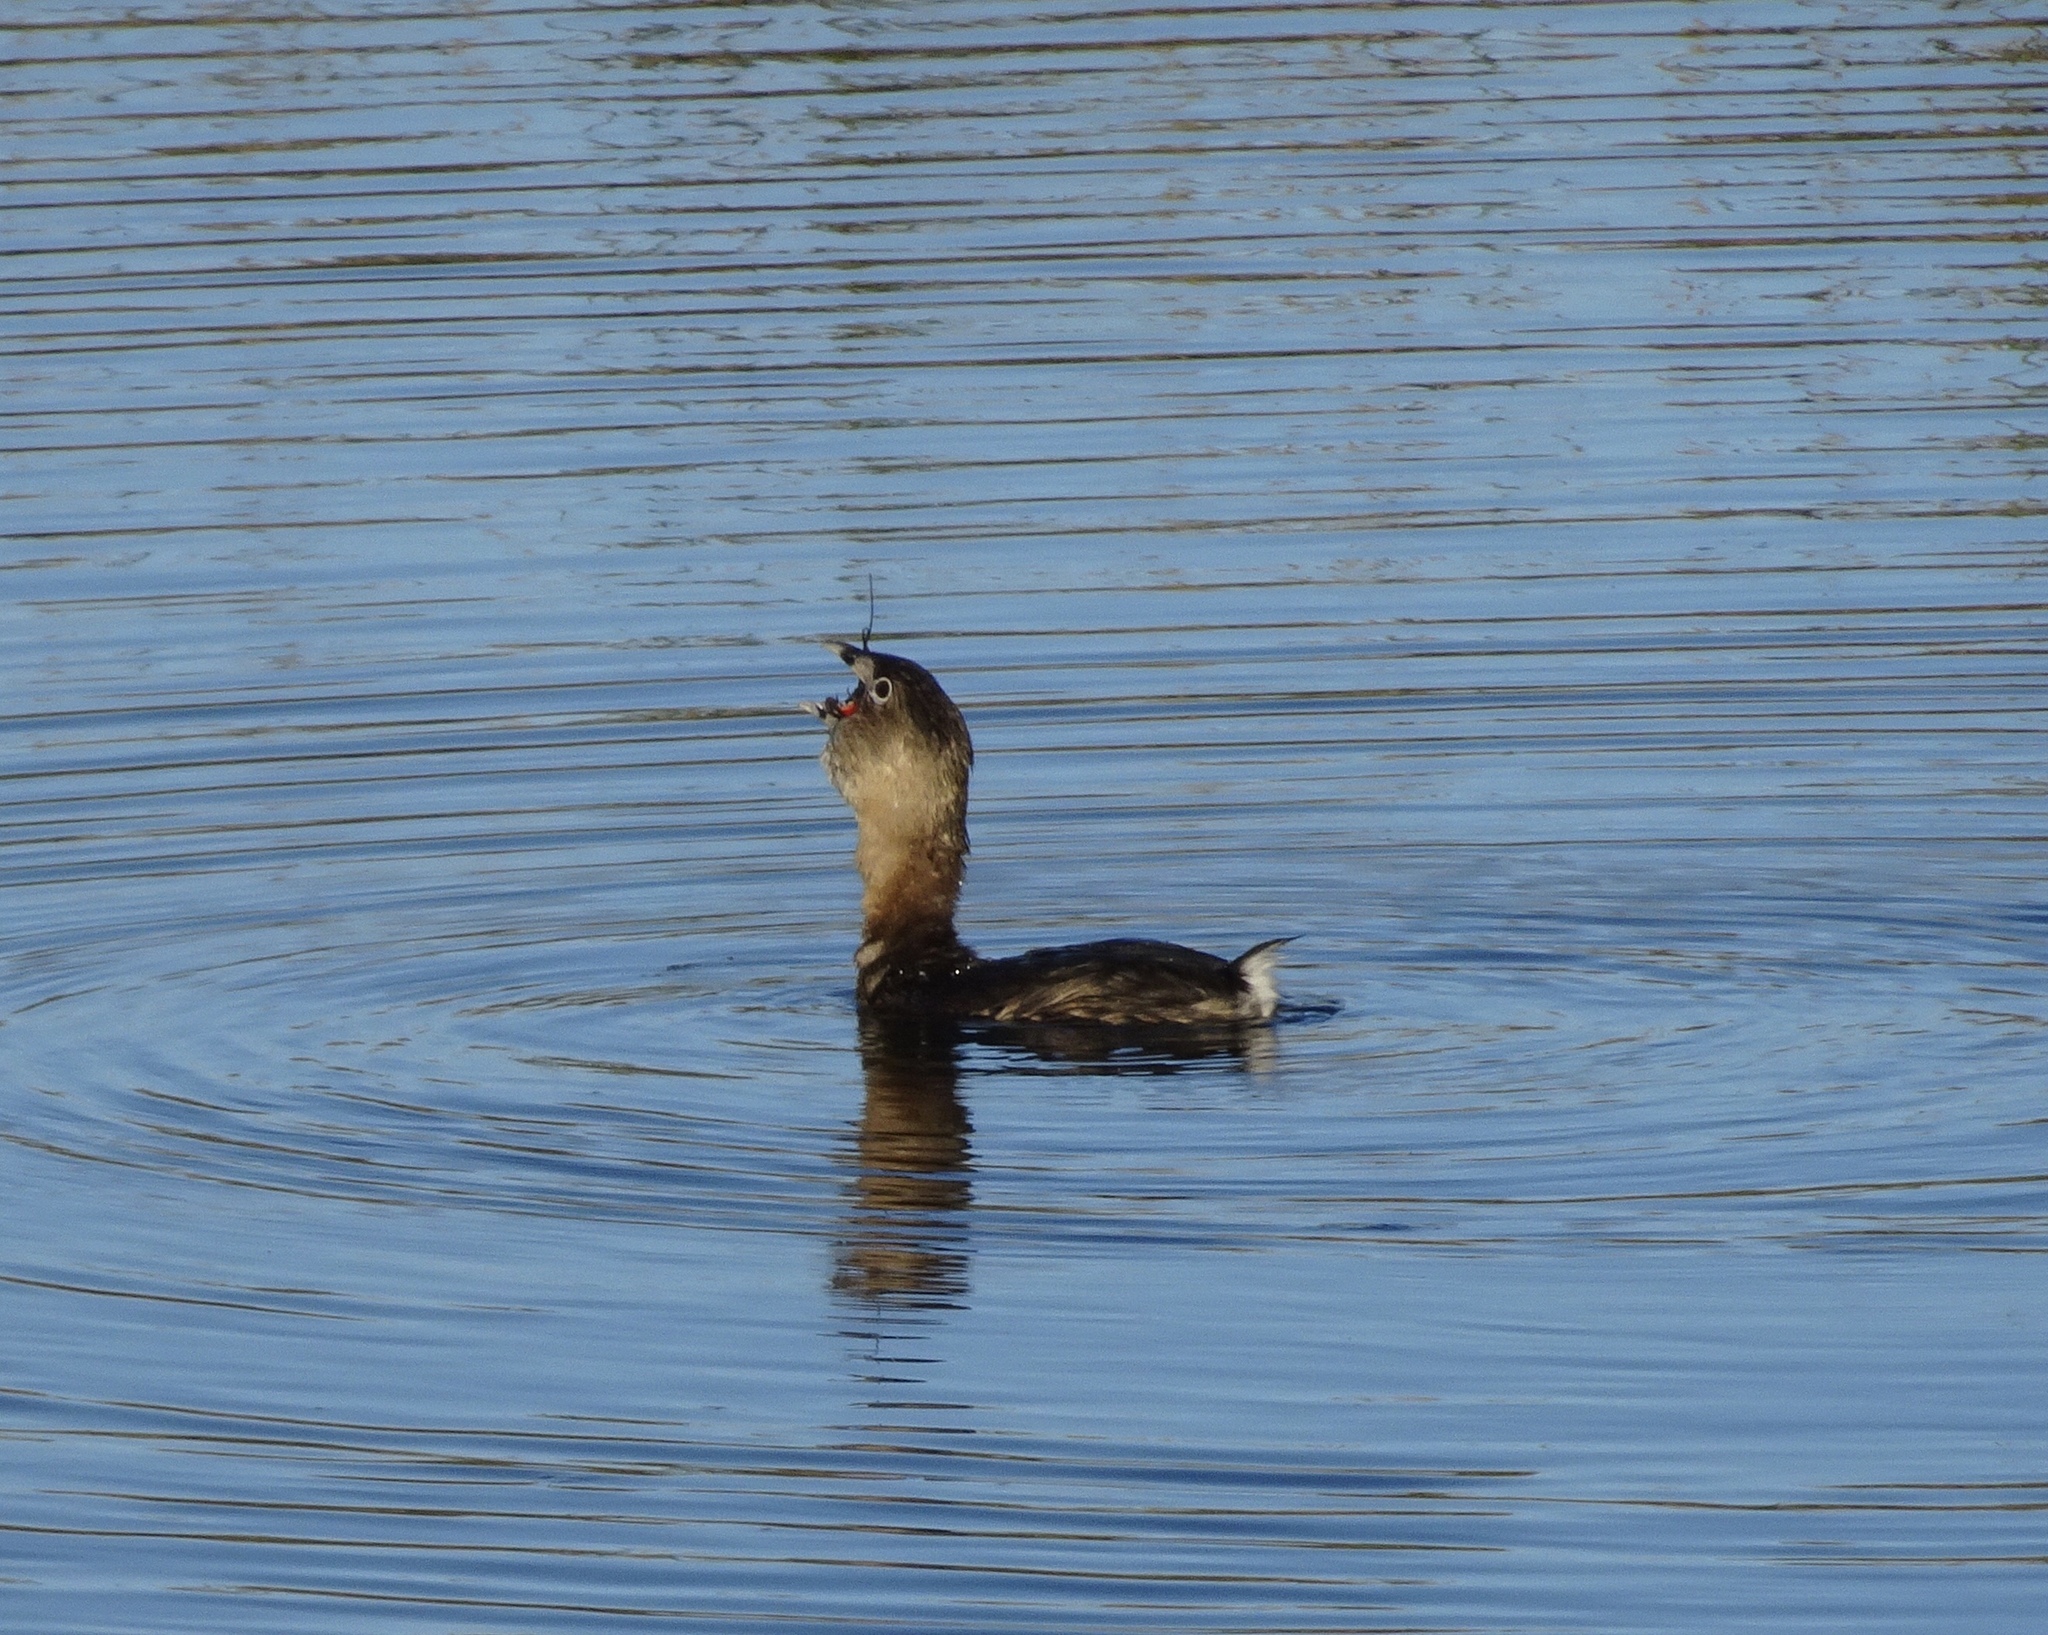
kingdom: Animalia
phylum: Chordata
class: Aves
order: Podicipediformes
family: Podicipedidae
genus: Podilymbus
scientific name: Podilymbus podiceps
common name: Pied-billed grebe
